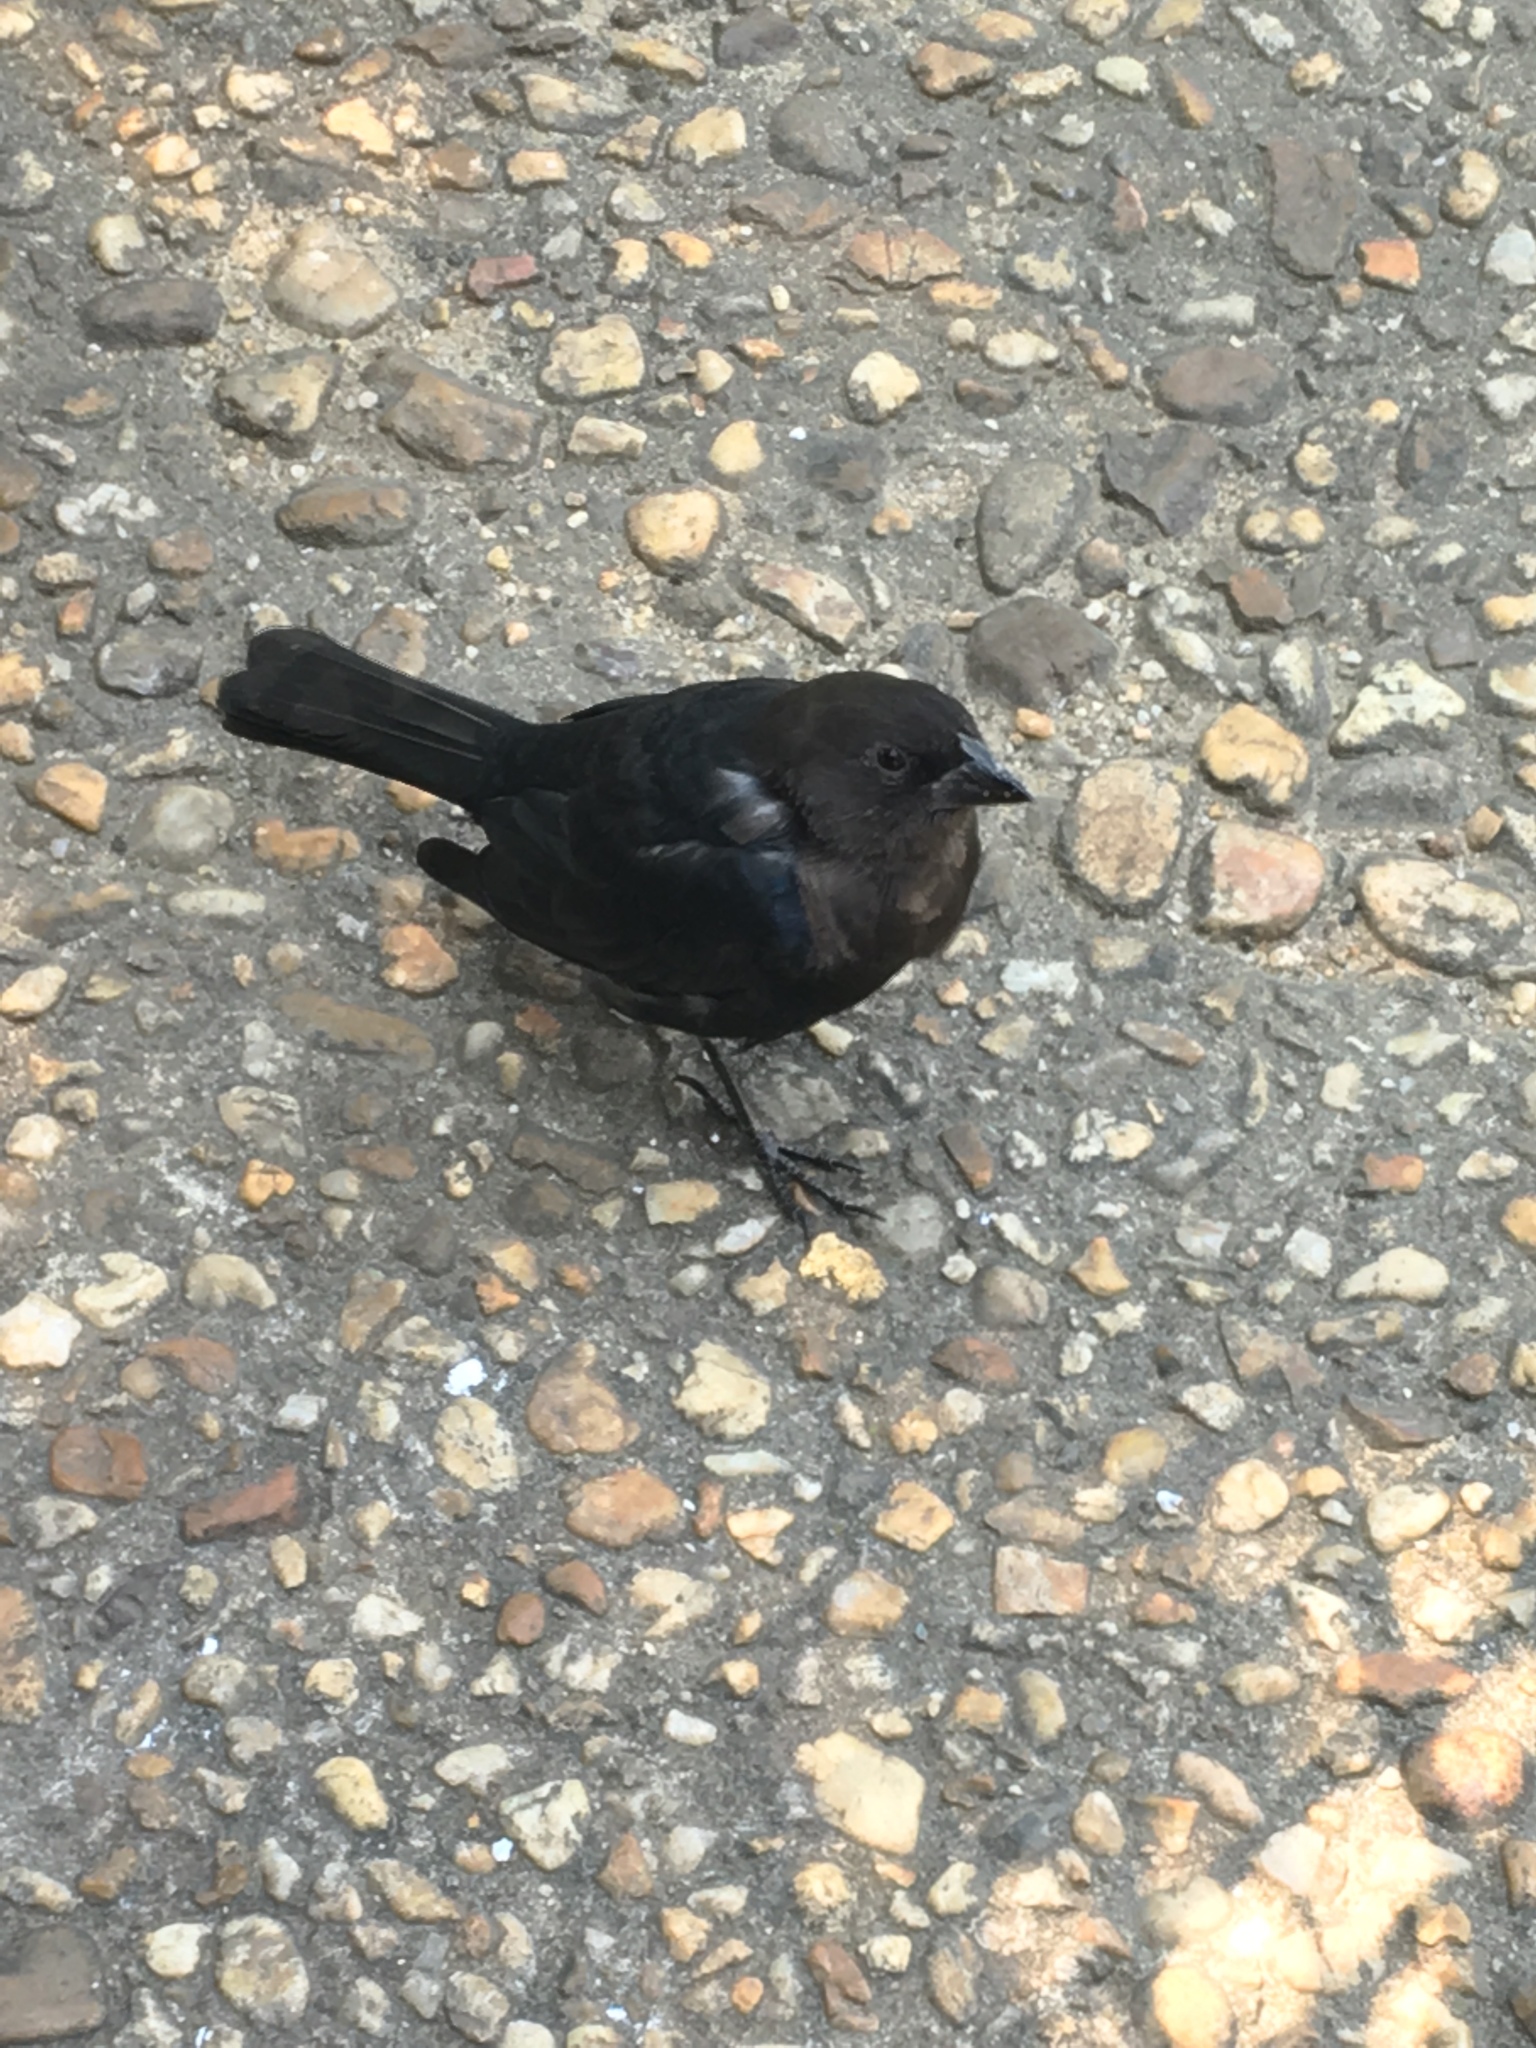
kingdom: Animalia
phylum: Chordata
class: Aves
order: Passeriformes
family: Icteridae
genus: Molothrus
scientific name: Molothrus ater
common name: Brown-headed cowbird
